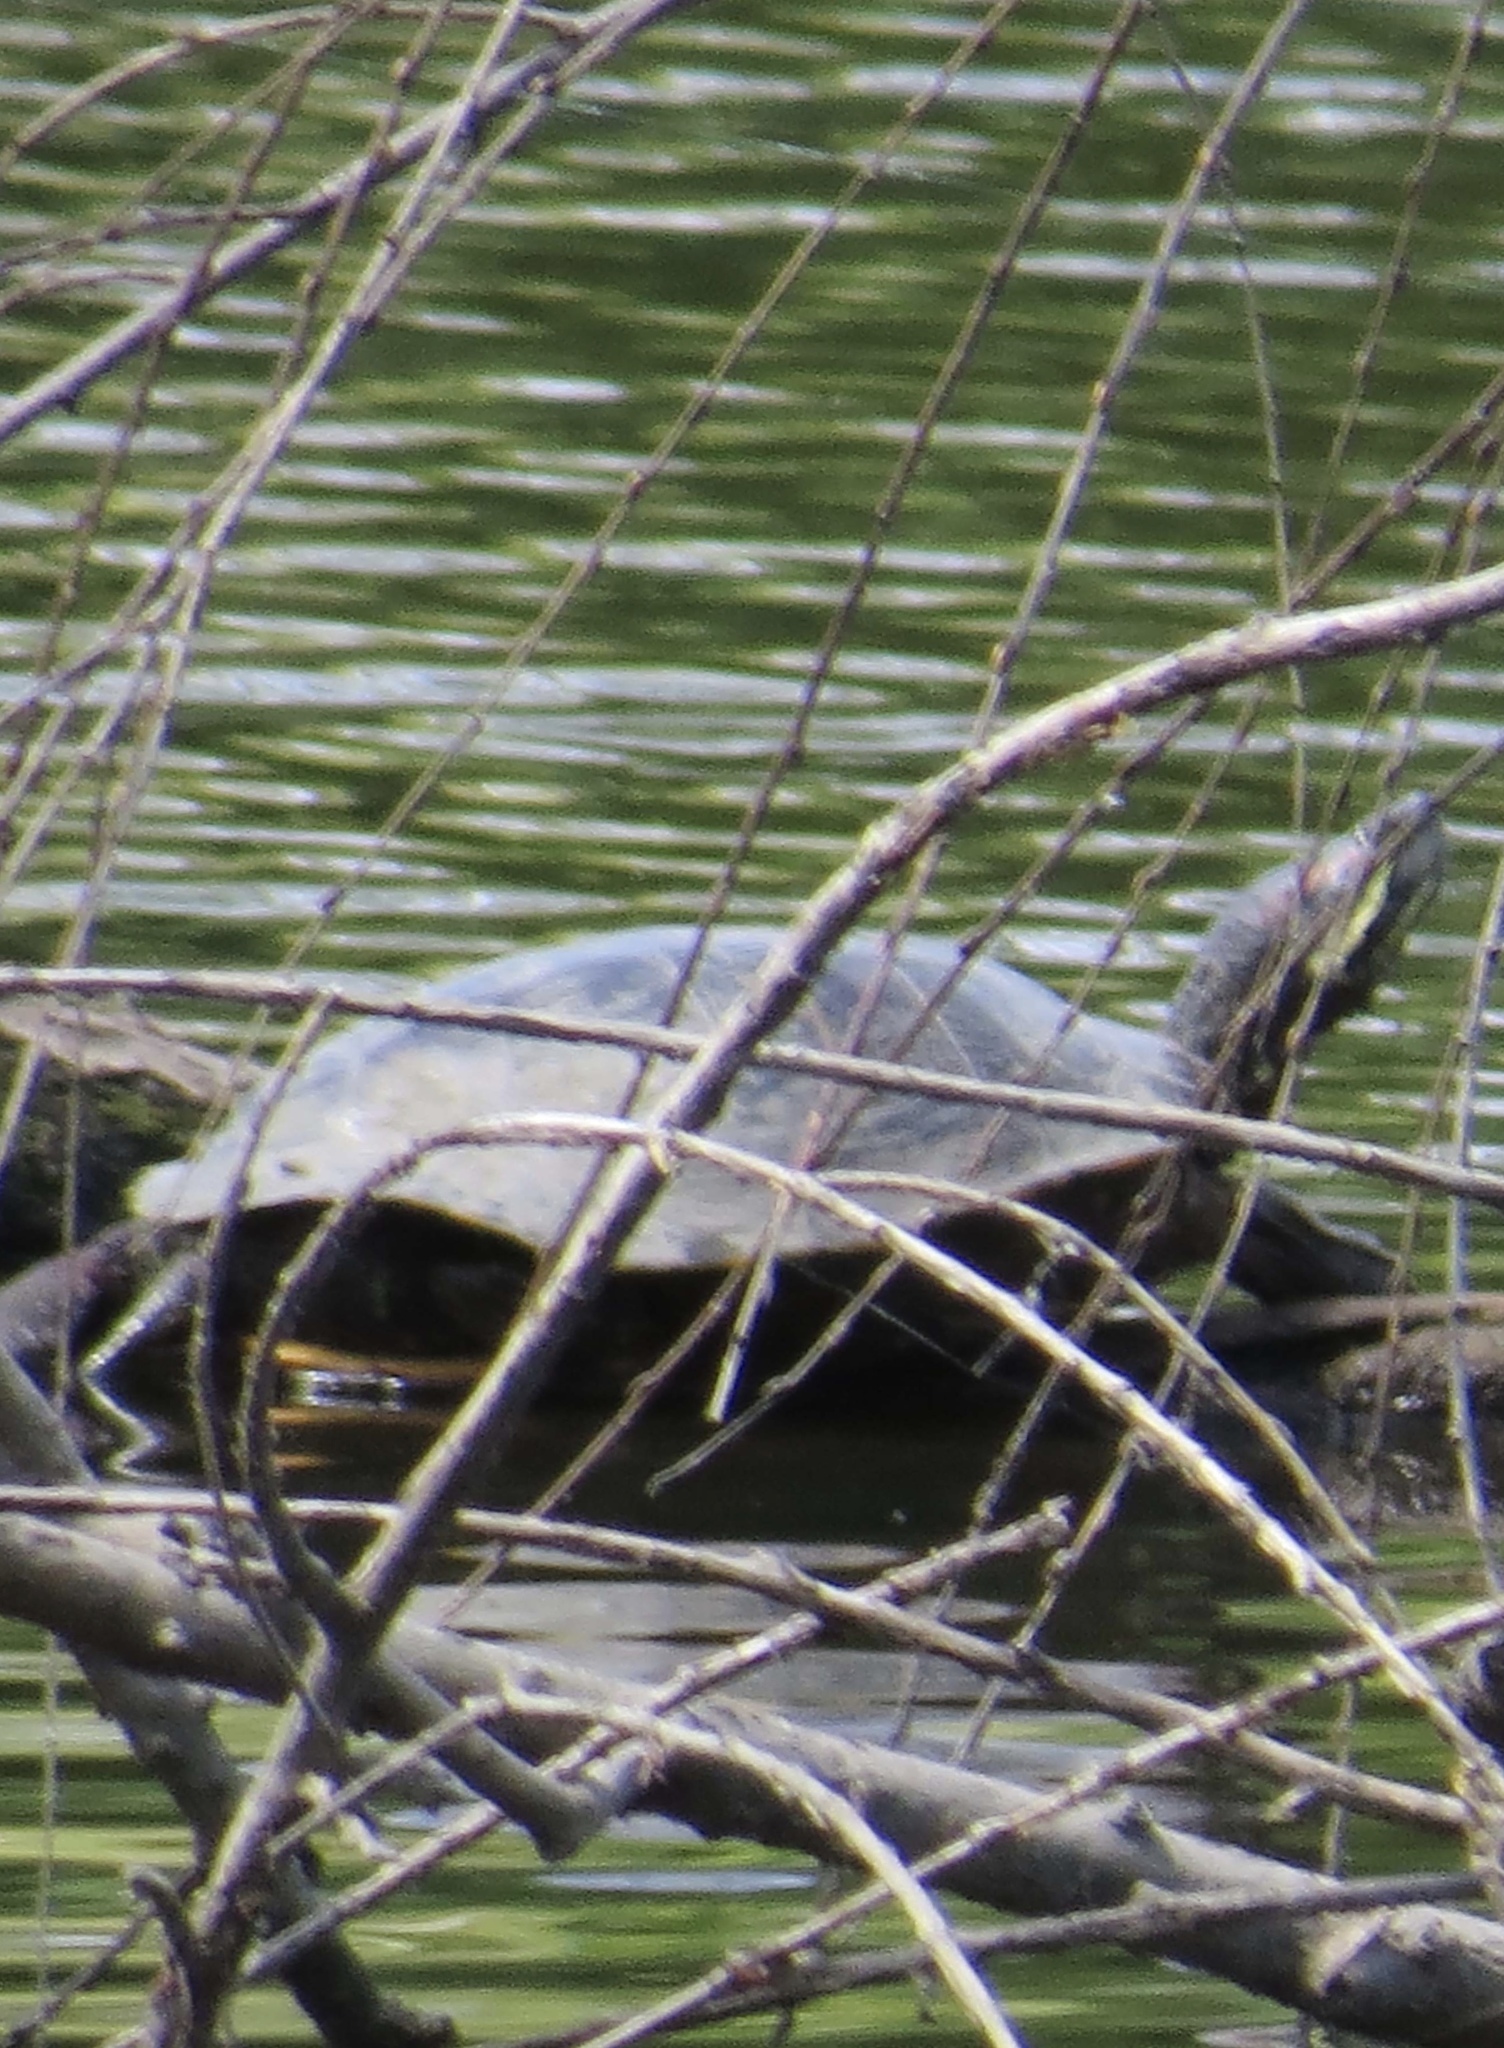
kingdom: Animalia
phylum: Chordata
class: Testudines
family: Emydidae
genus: Trachemys
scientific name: Trachemys scripta
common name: Slider
